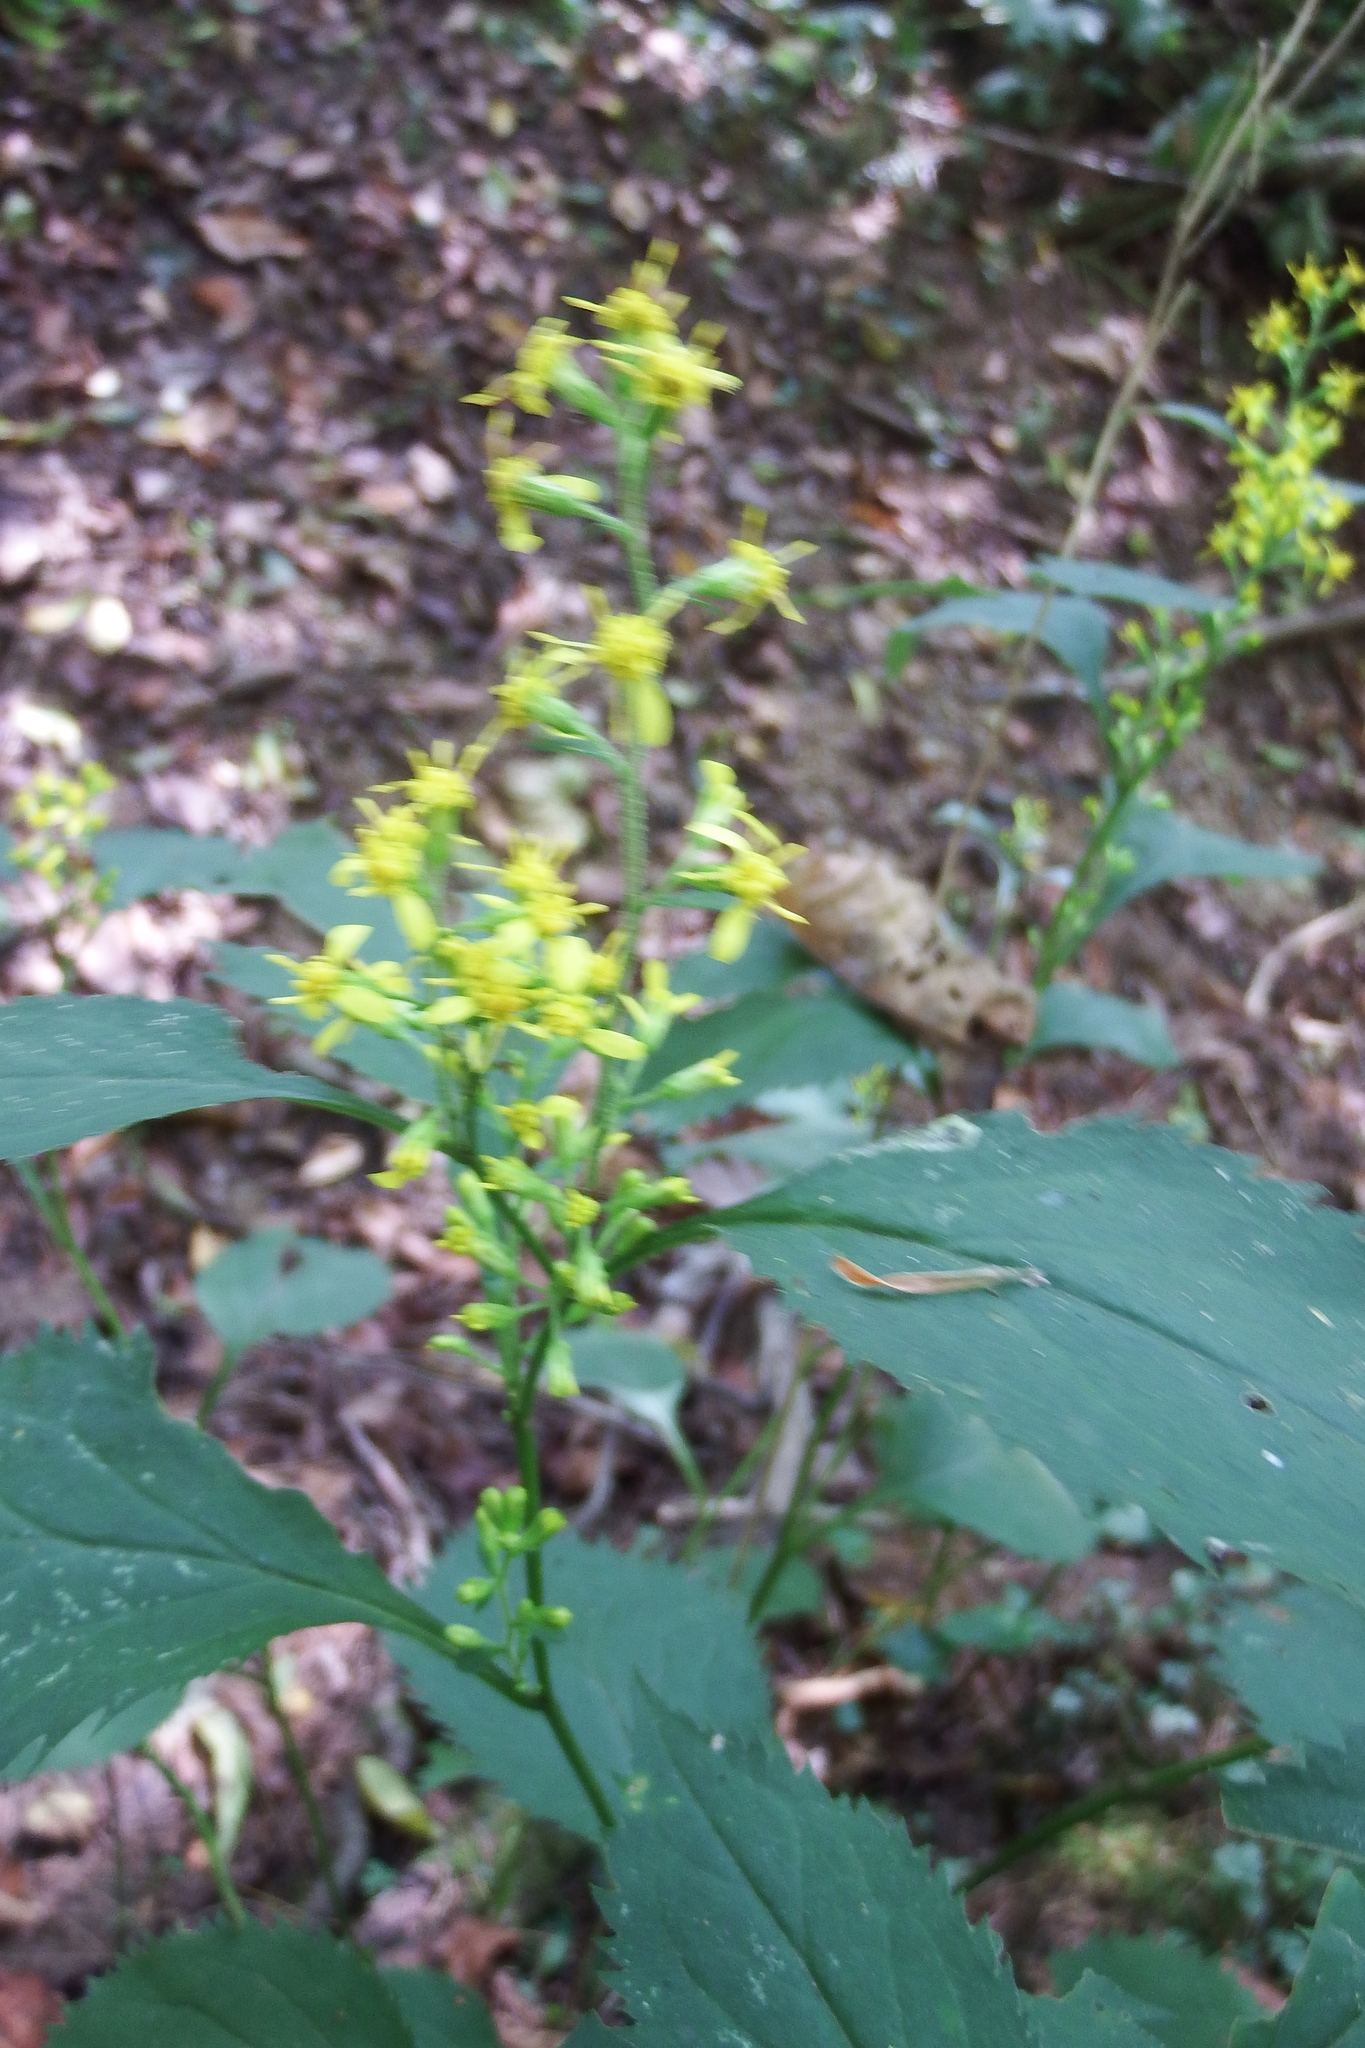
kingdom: Plantae
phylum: Tracheophyta
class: Magnoliopsida
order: Asterales
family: Asteraceae
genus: Solidago
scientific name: Solidago flexicaulis
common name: Zig-zag goldenrod
